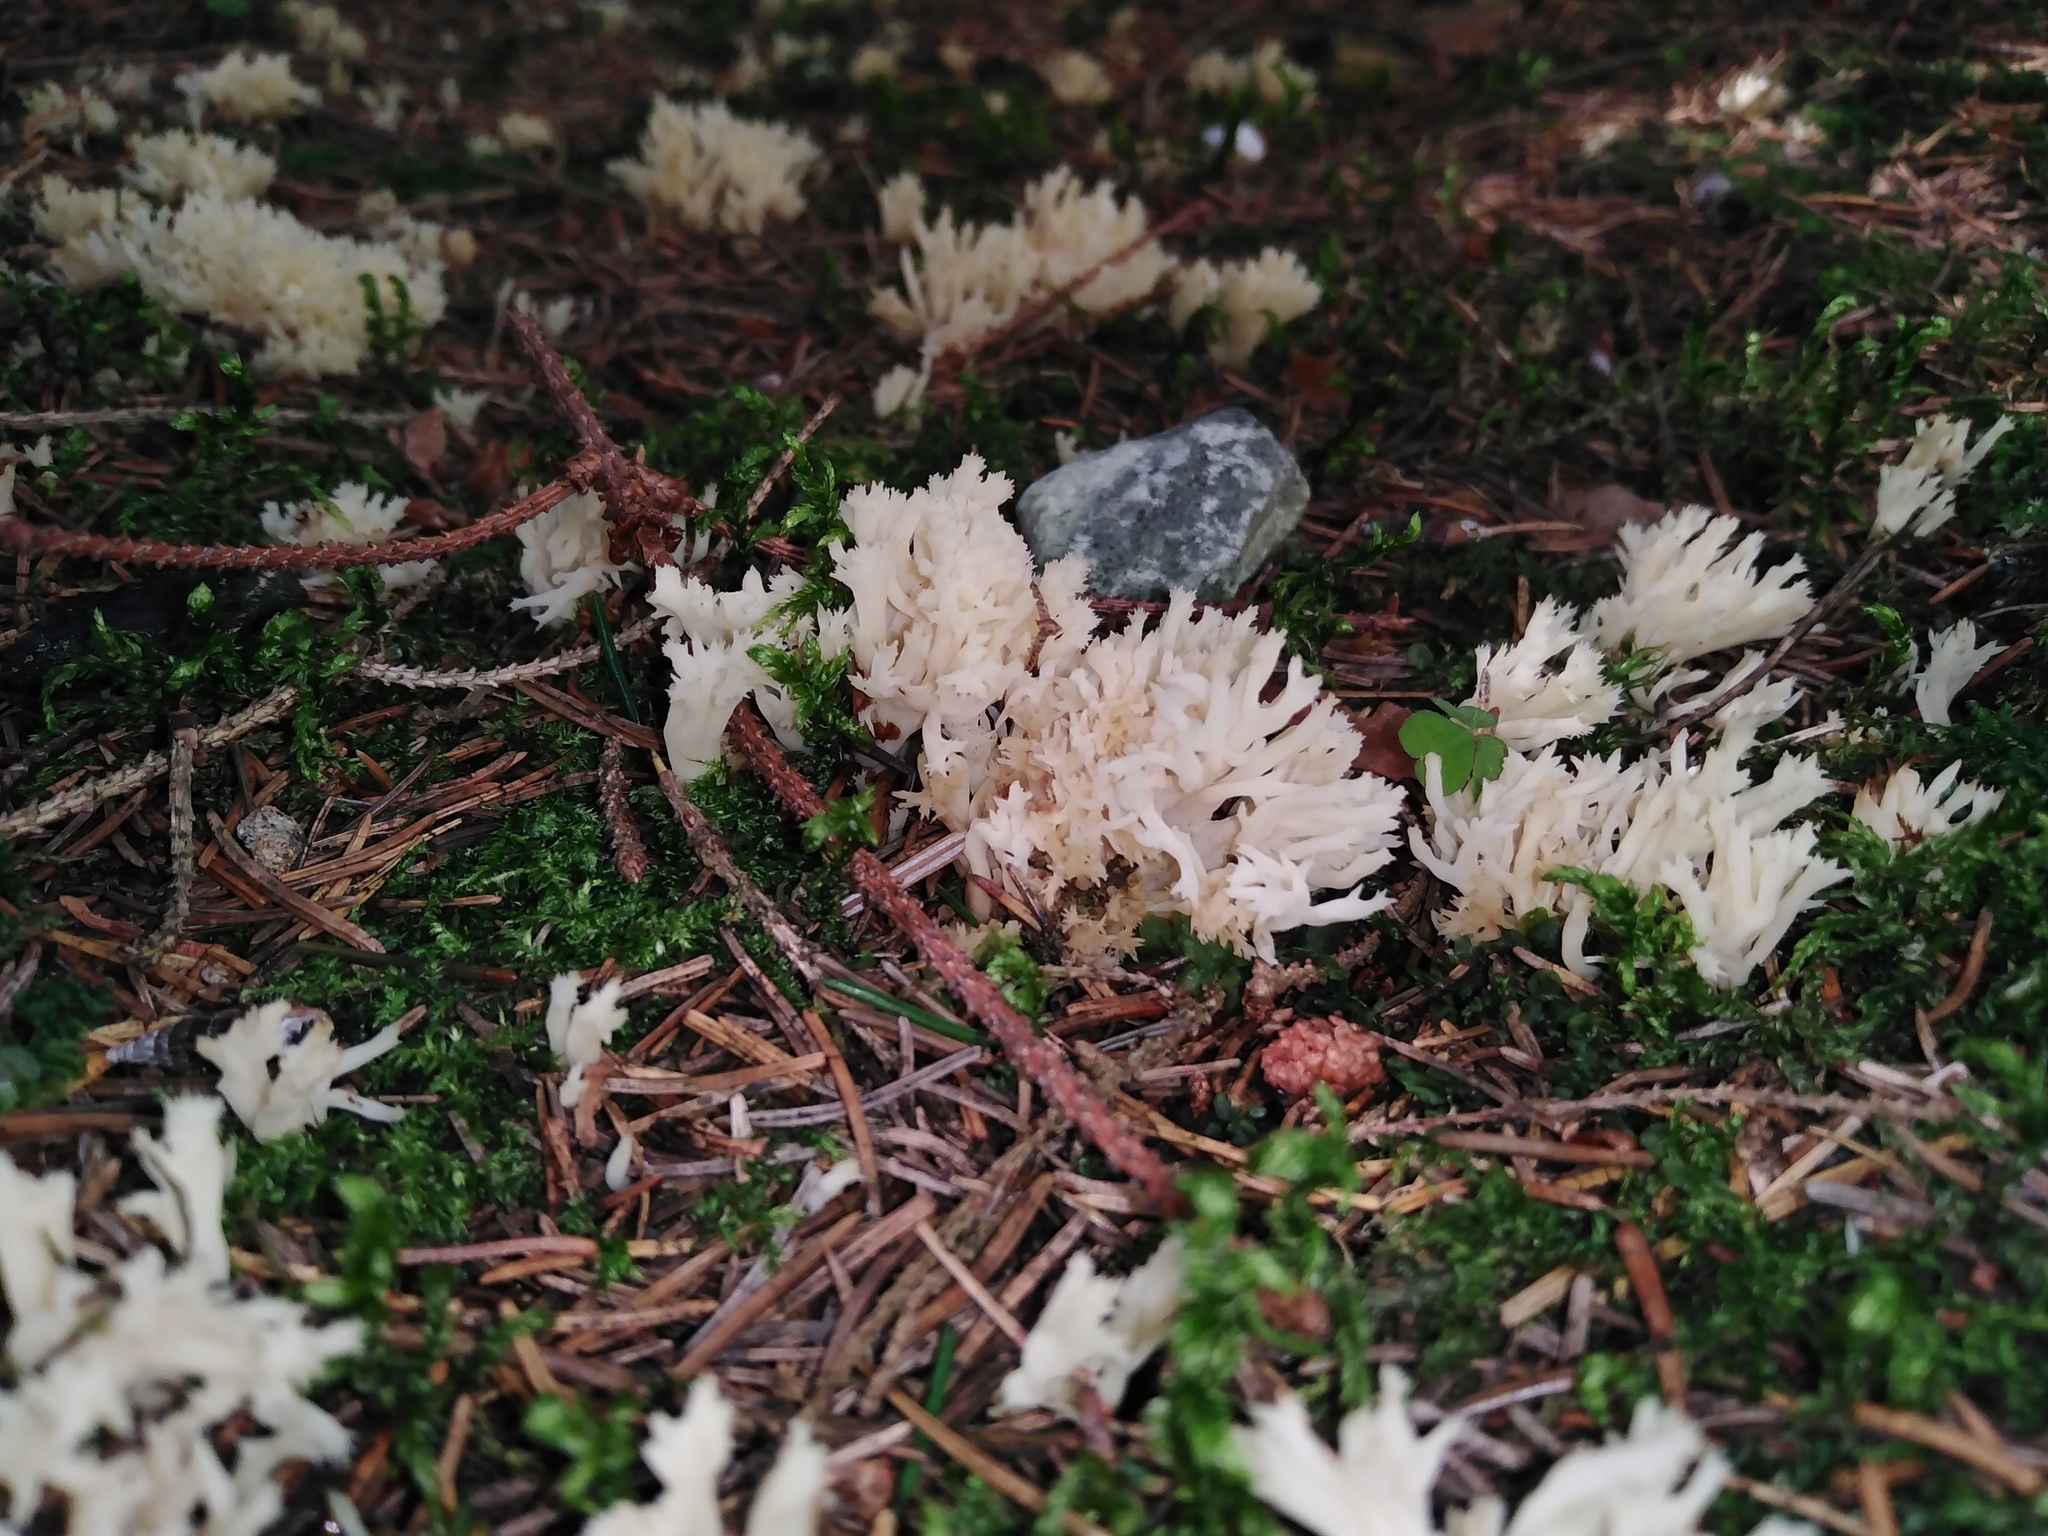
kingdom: Fungi
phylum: Basidiomycota
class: Agaricomycetes
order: Cantharellales
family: Hydnaceae
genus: Clavulina
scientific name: Clavulina coralloides
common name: Crested coral
